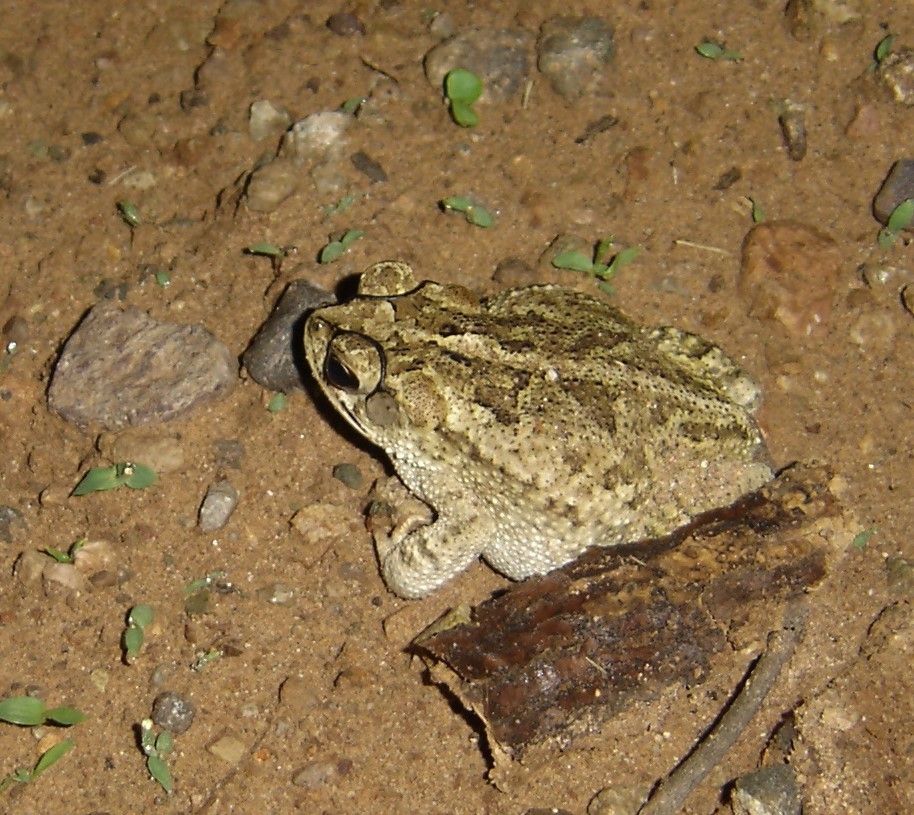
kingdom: Animalia
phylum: Chordata
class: Amphibia
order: Anura
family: Bufonidae
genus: Incilius
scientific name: Incilius mazatlanensis
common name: Sinaloa toad
